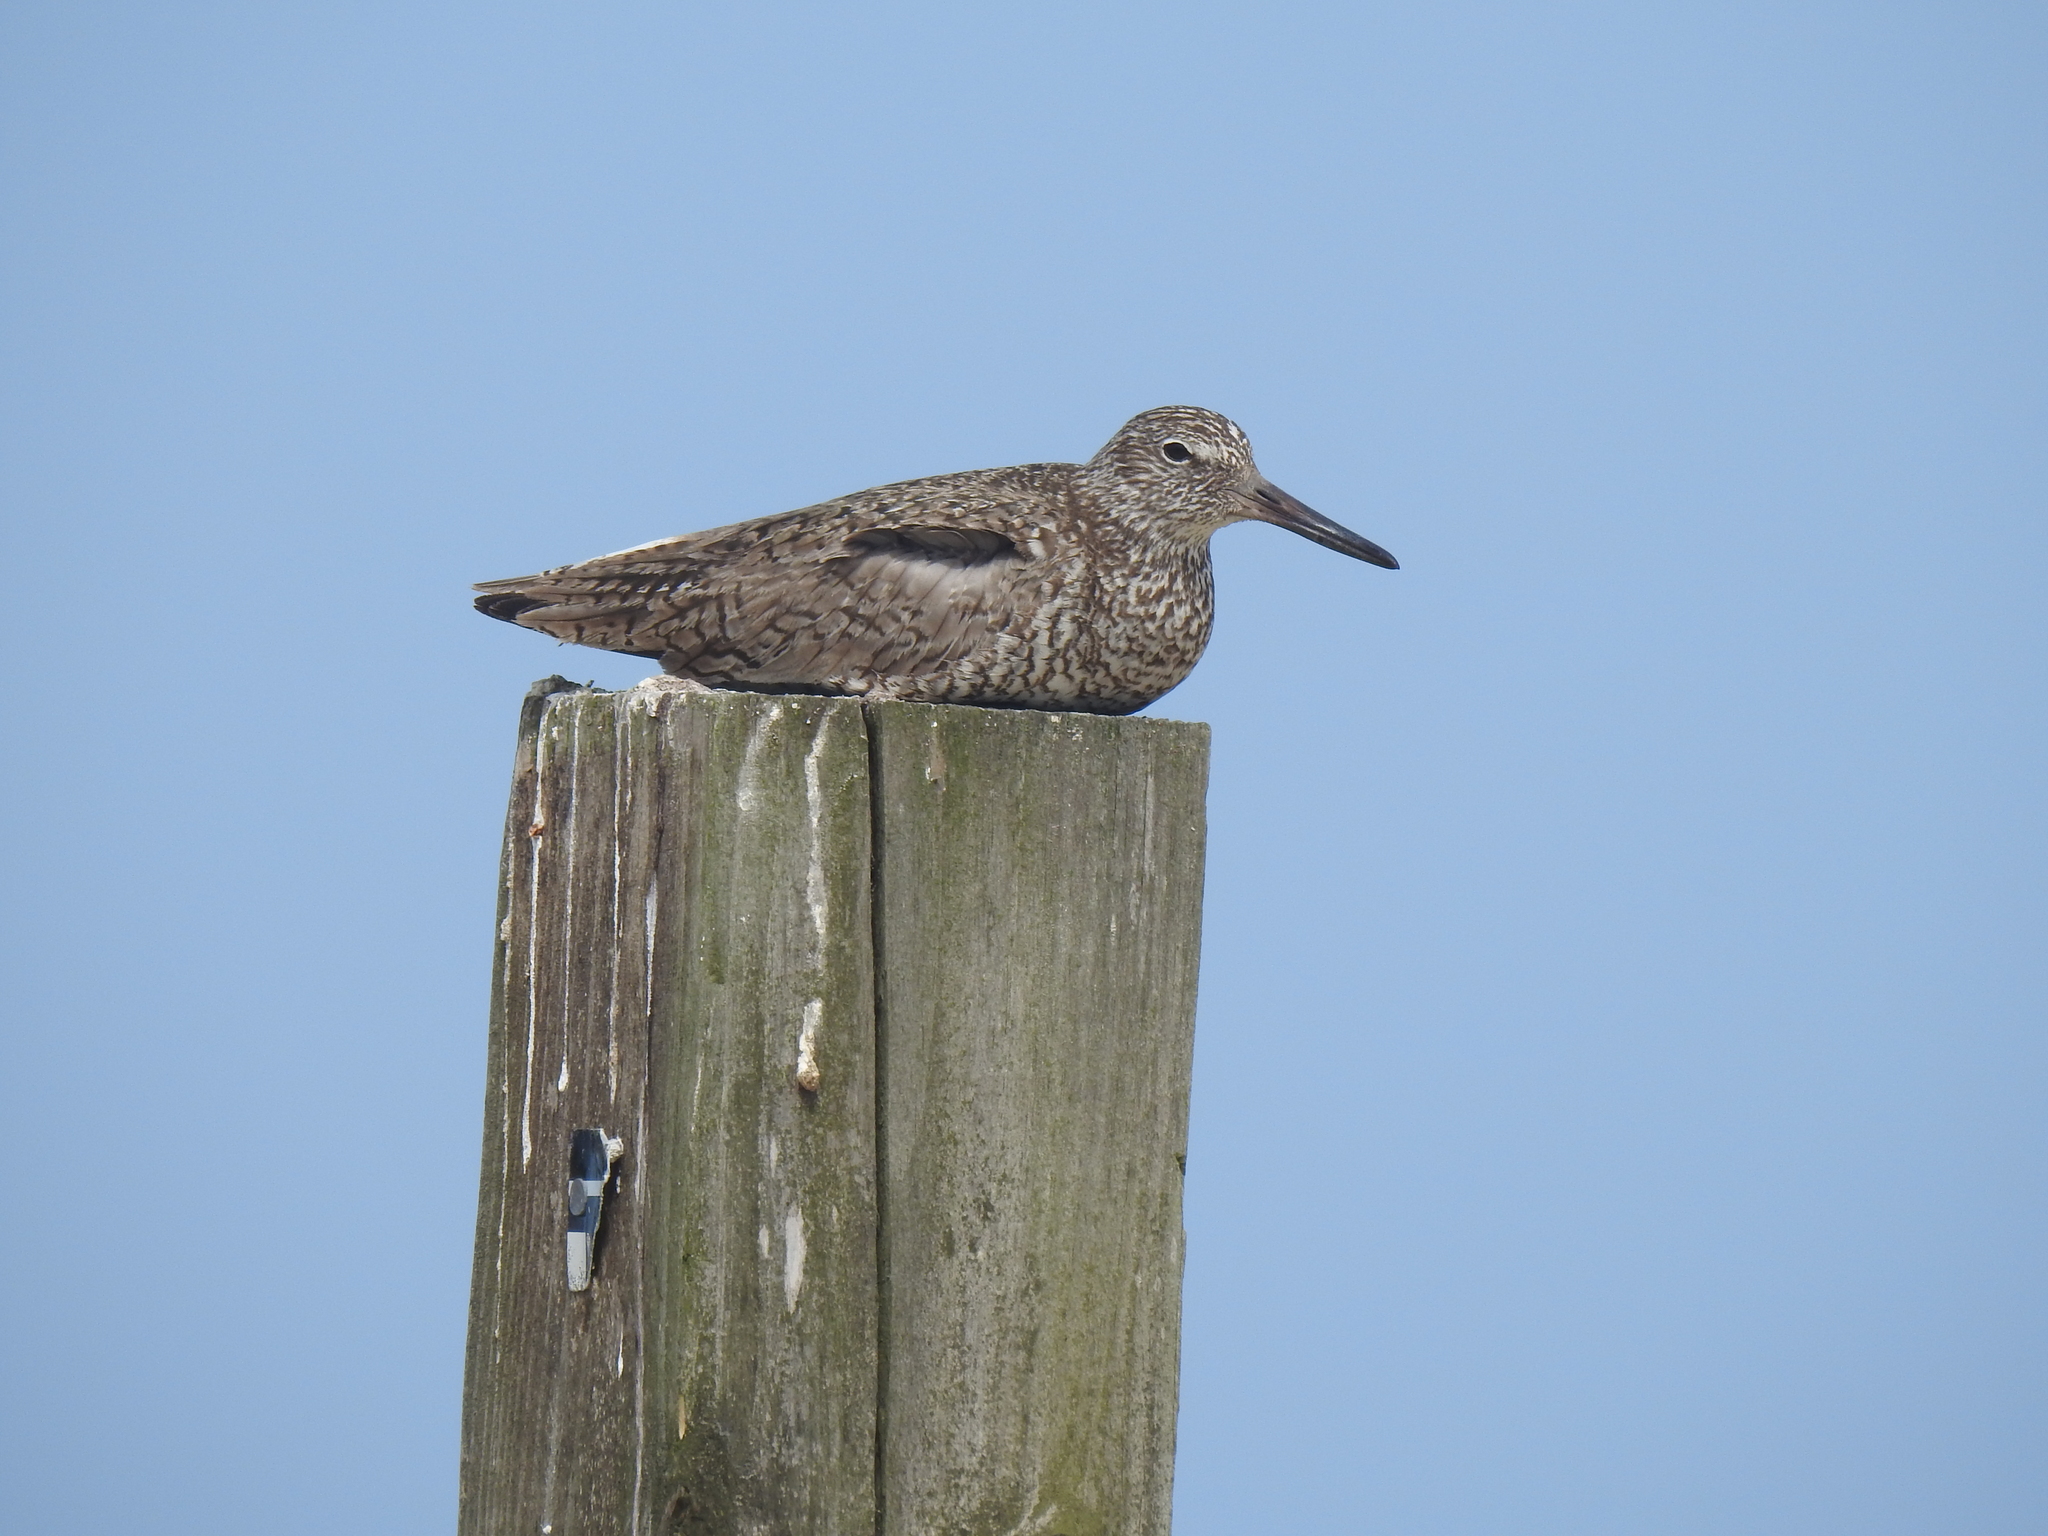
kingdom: Animalia
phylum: Chordata
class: Aves
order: Charadriiformes
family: Scolopacidae
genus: Tringa
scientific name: Tringa semipalmata
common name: Willet
